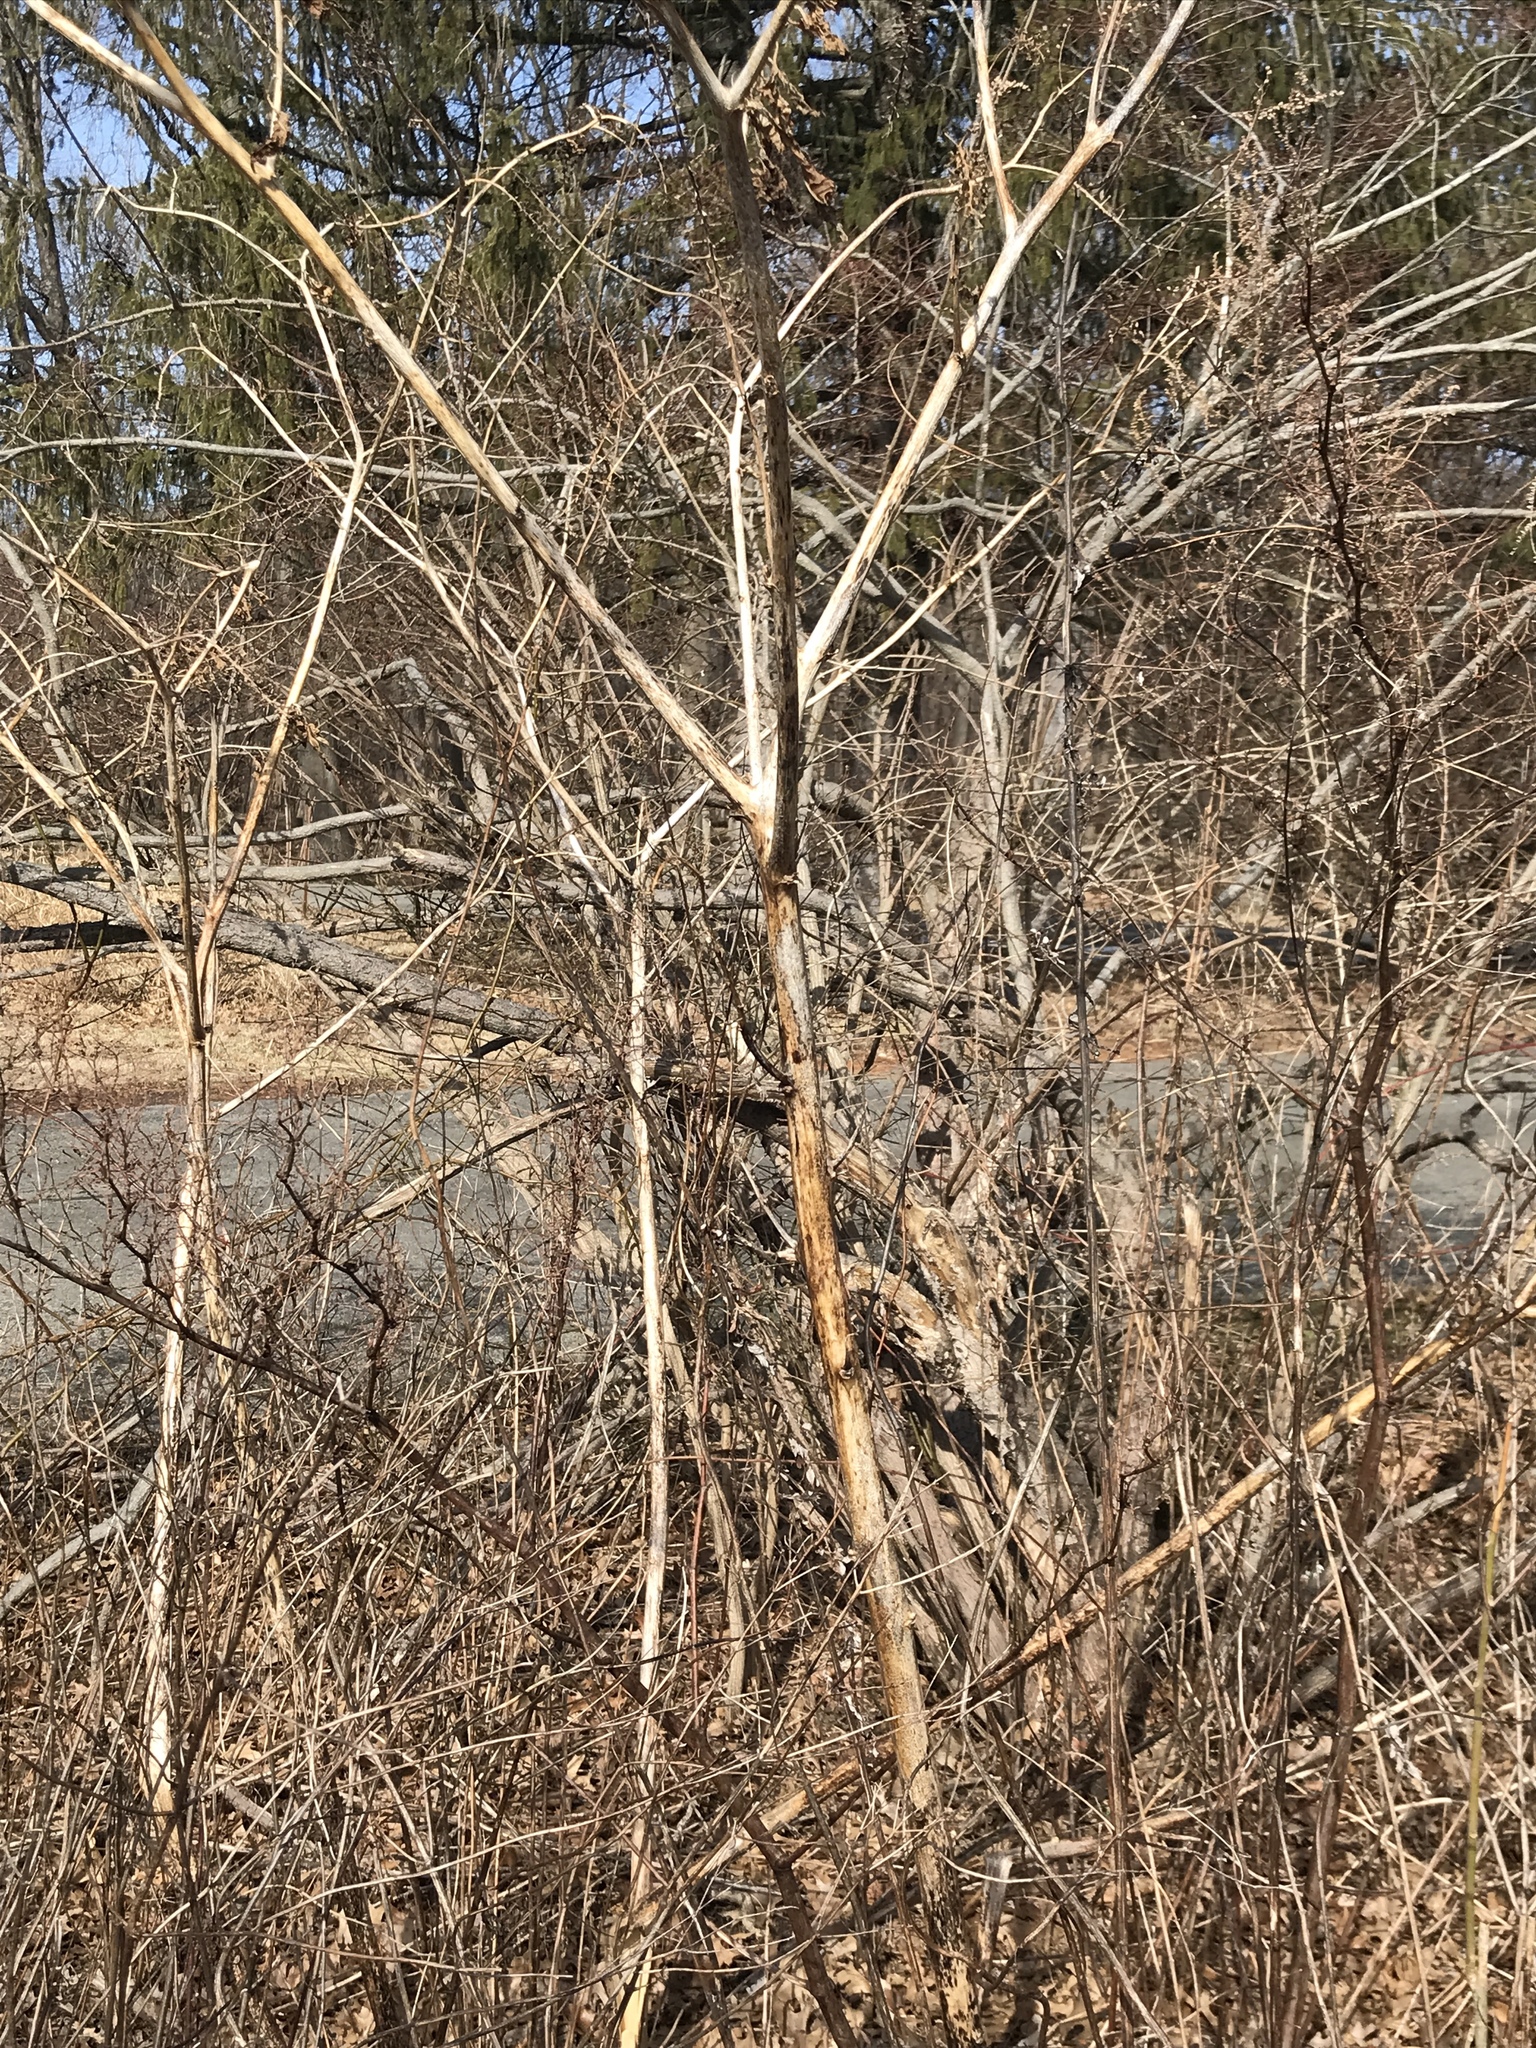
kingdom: Plantae
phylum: Tracheophyta
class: Magnoliopsida
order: Caryophyllales
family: Phytolaccaceae
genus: Phytolacca
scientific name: Phytolacca americana
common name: American pokeweed
